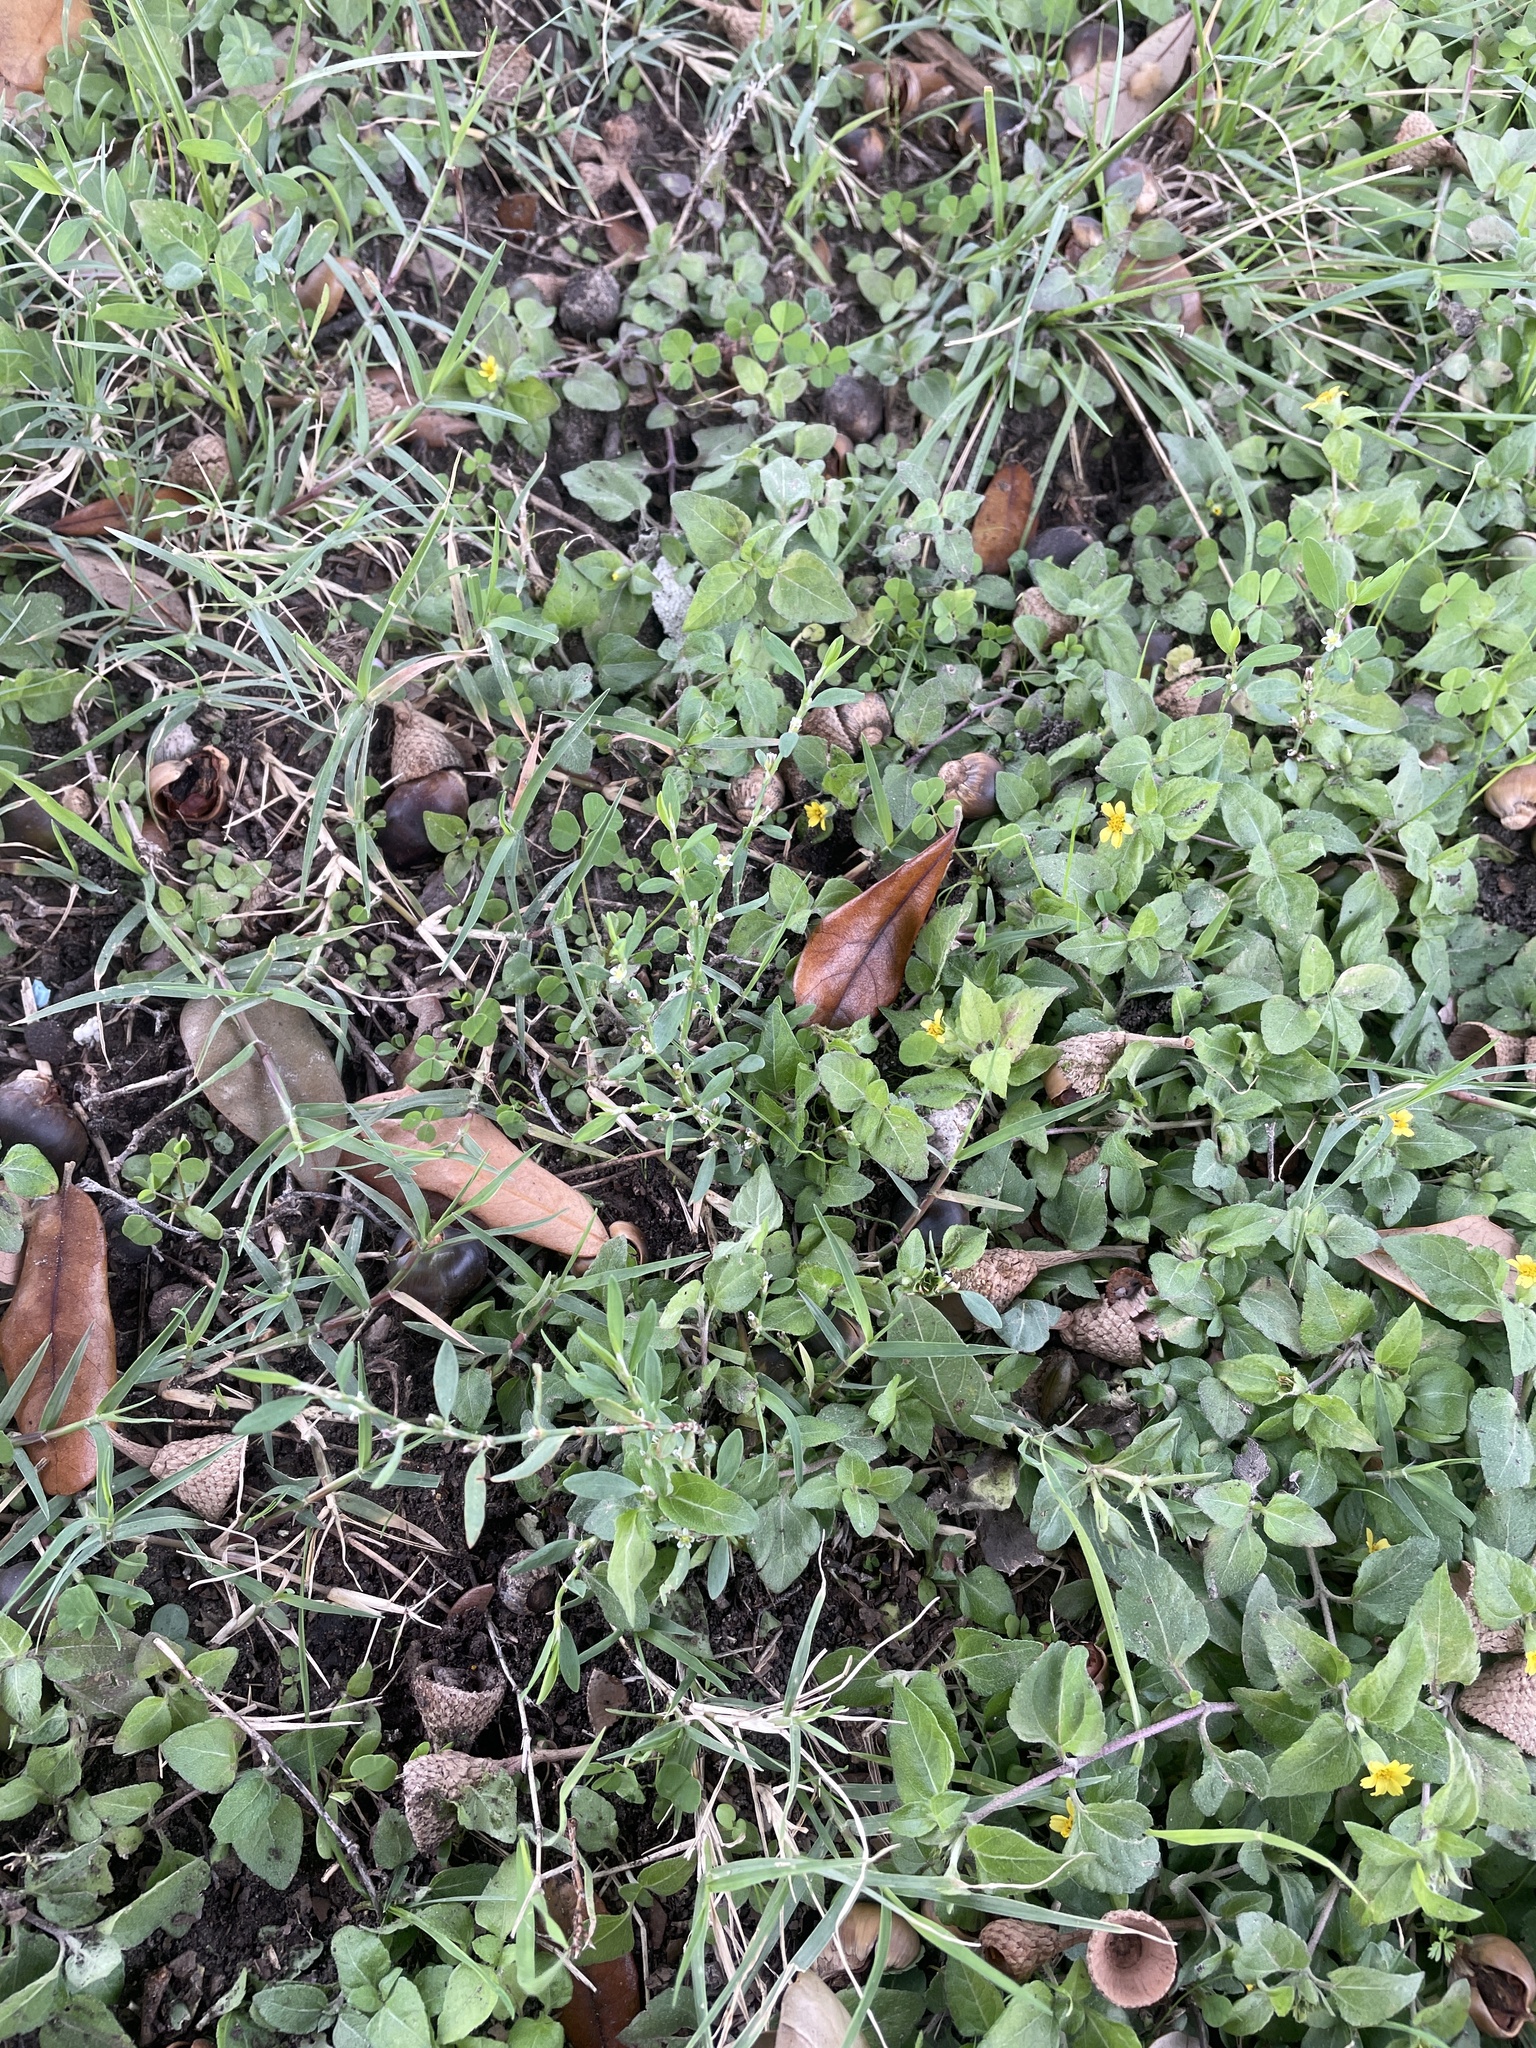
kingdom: Plantae
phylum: Tracheophyta
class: Magnoliopsida
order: Caryophyllales
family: Polygonaceae
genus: Polygonum
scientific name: Polygonum aviculare
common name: Prostrate knotweed
